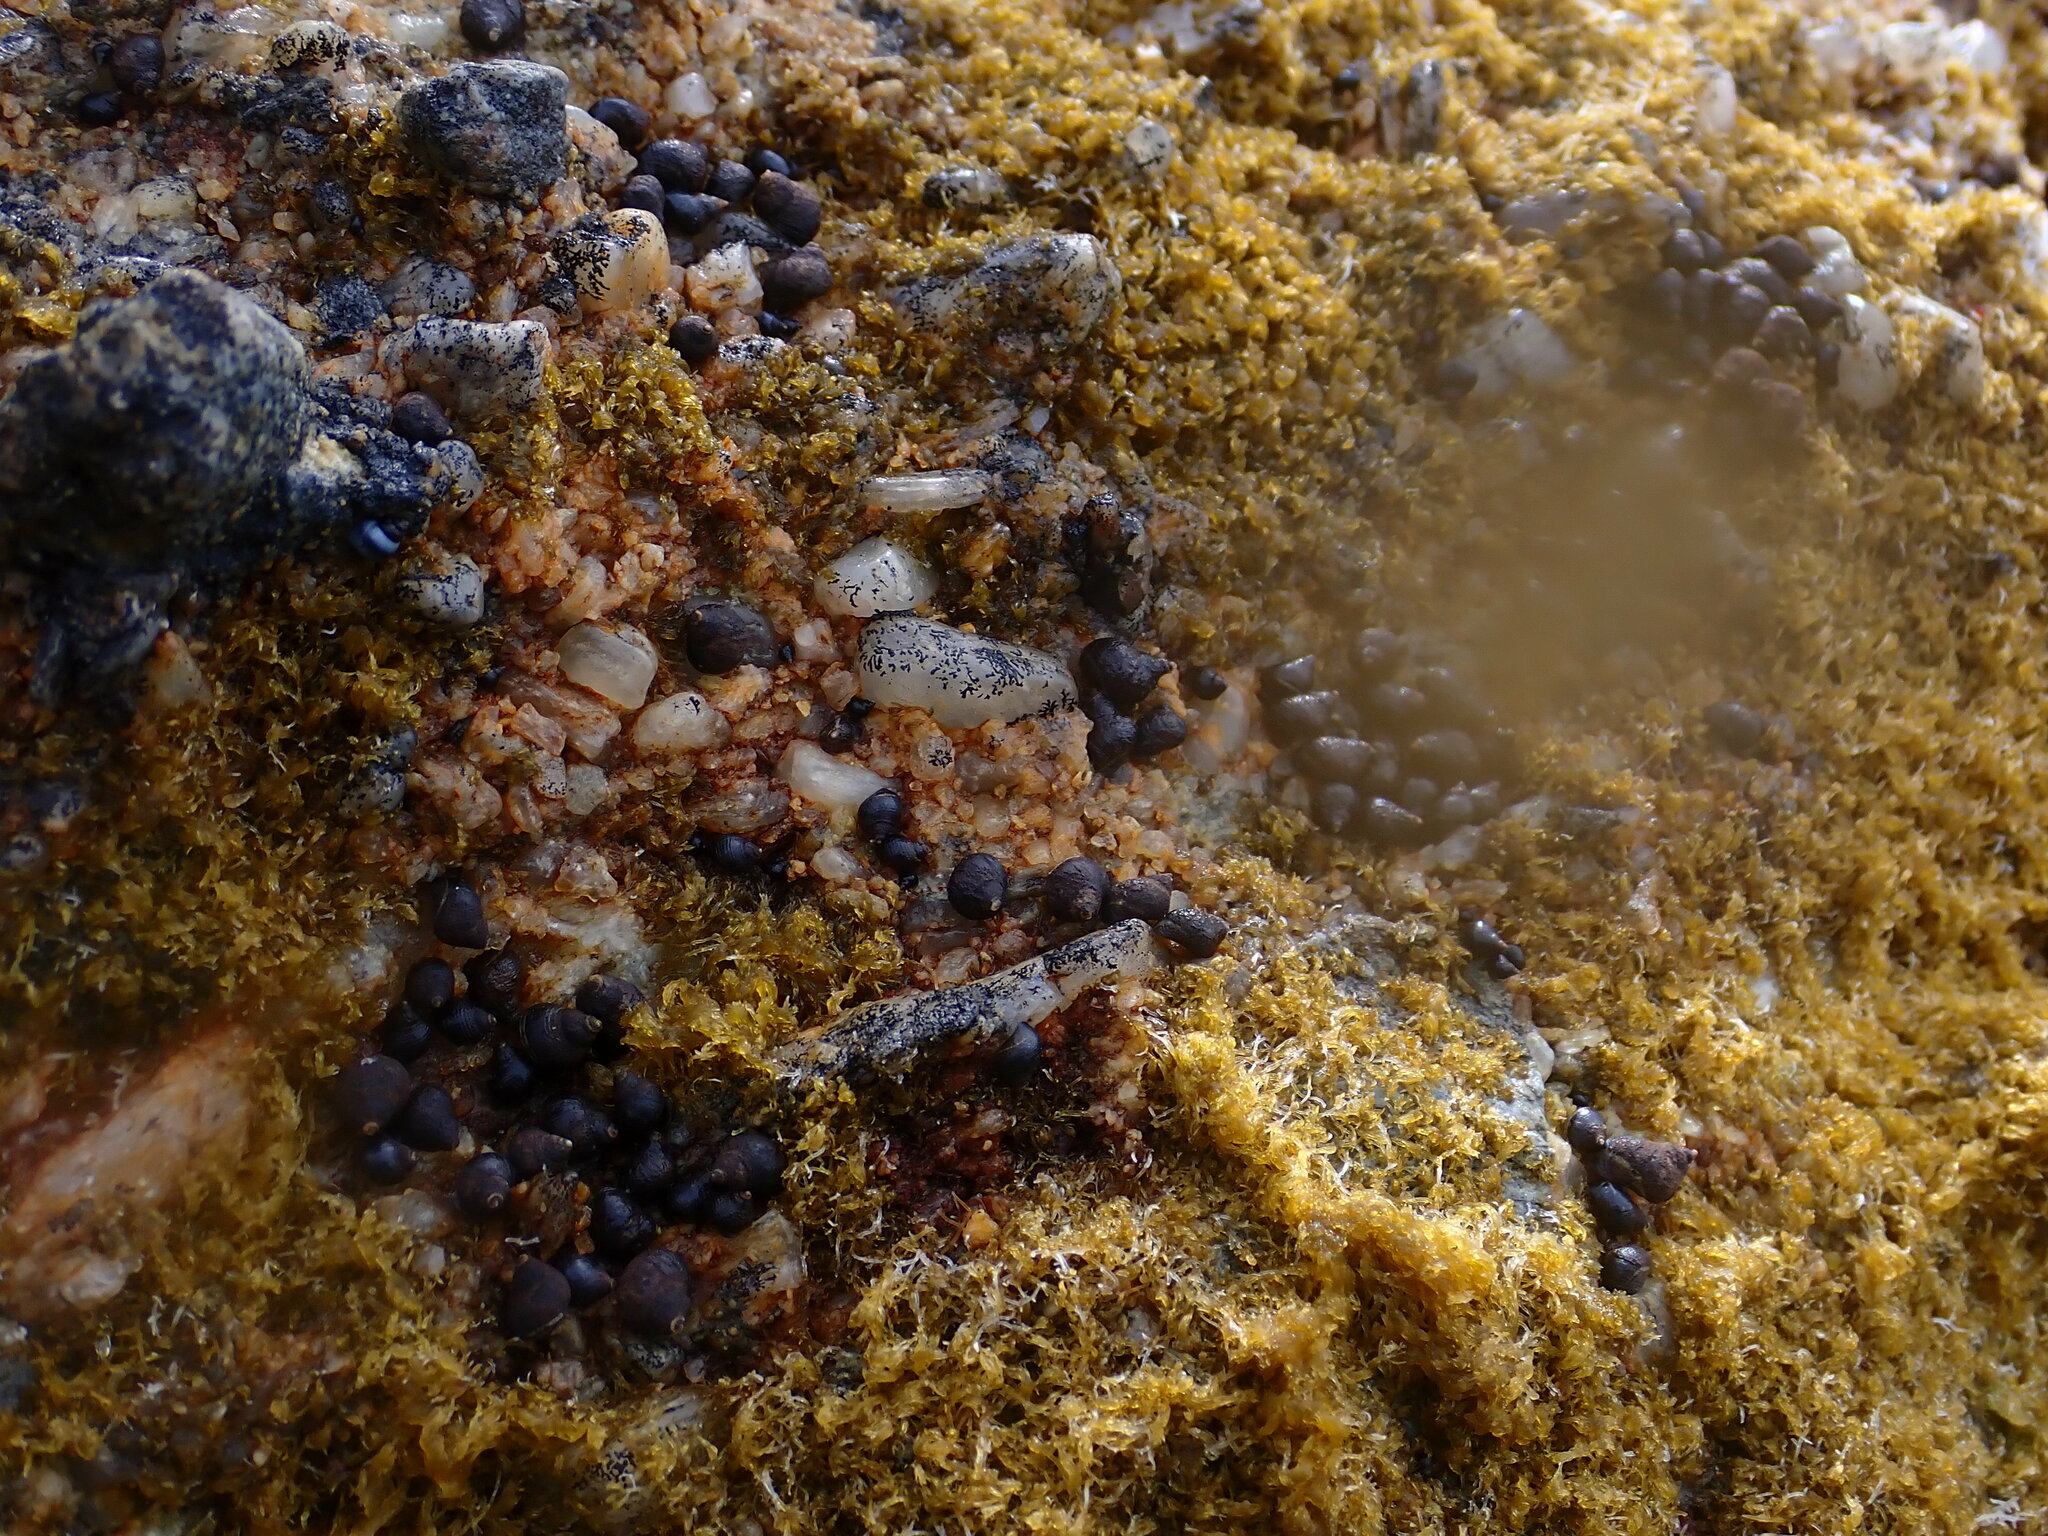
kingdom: Animalia
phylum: Mollusca
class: Gastropoda
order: Littorinimorpha
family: Littorinidae
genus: Austrolittorina
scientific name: Austrolittorina cincta
